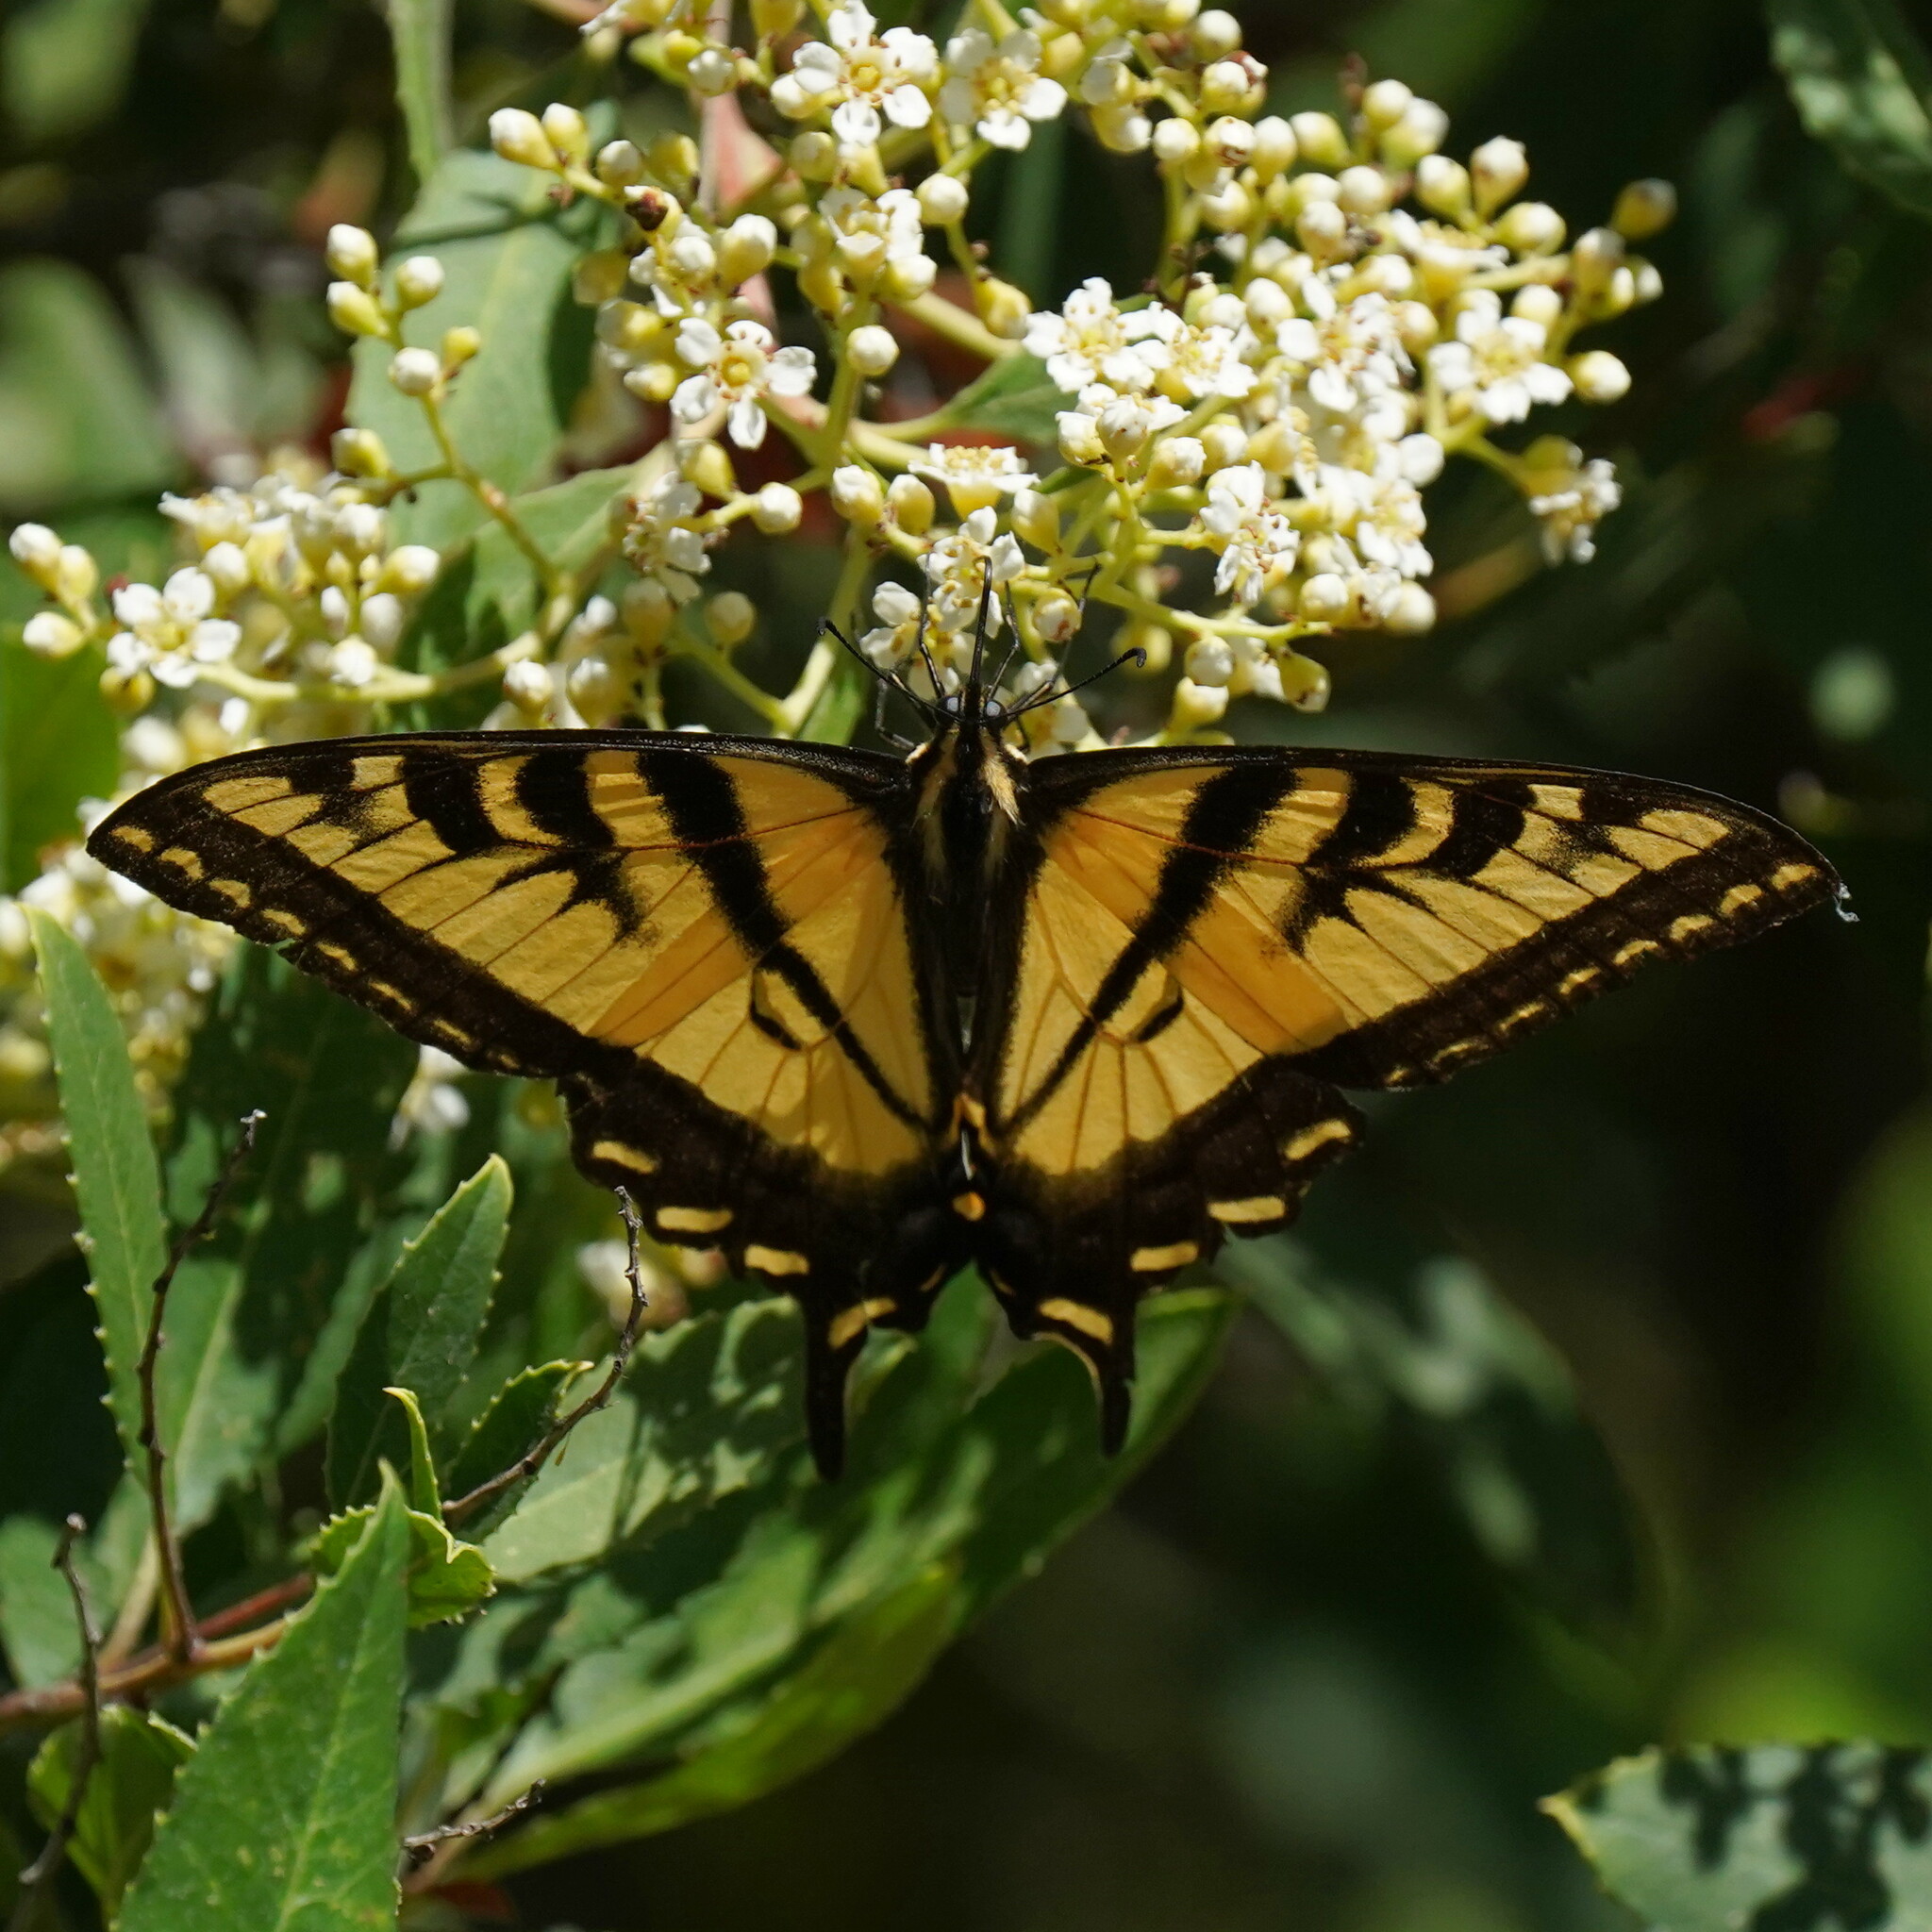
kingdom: Animalia
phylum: Arthropoda
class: Insecta
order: Lepidoptera
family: Papilionidae
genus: Papilio
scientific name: Papilio rutulus
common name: Western tiger swallowtail
